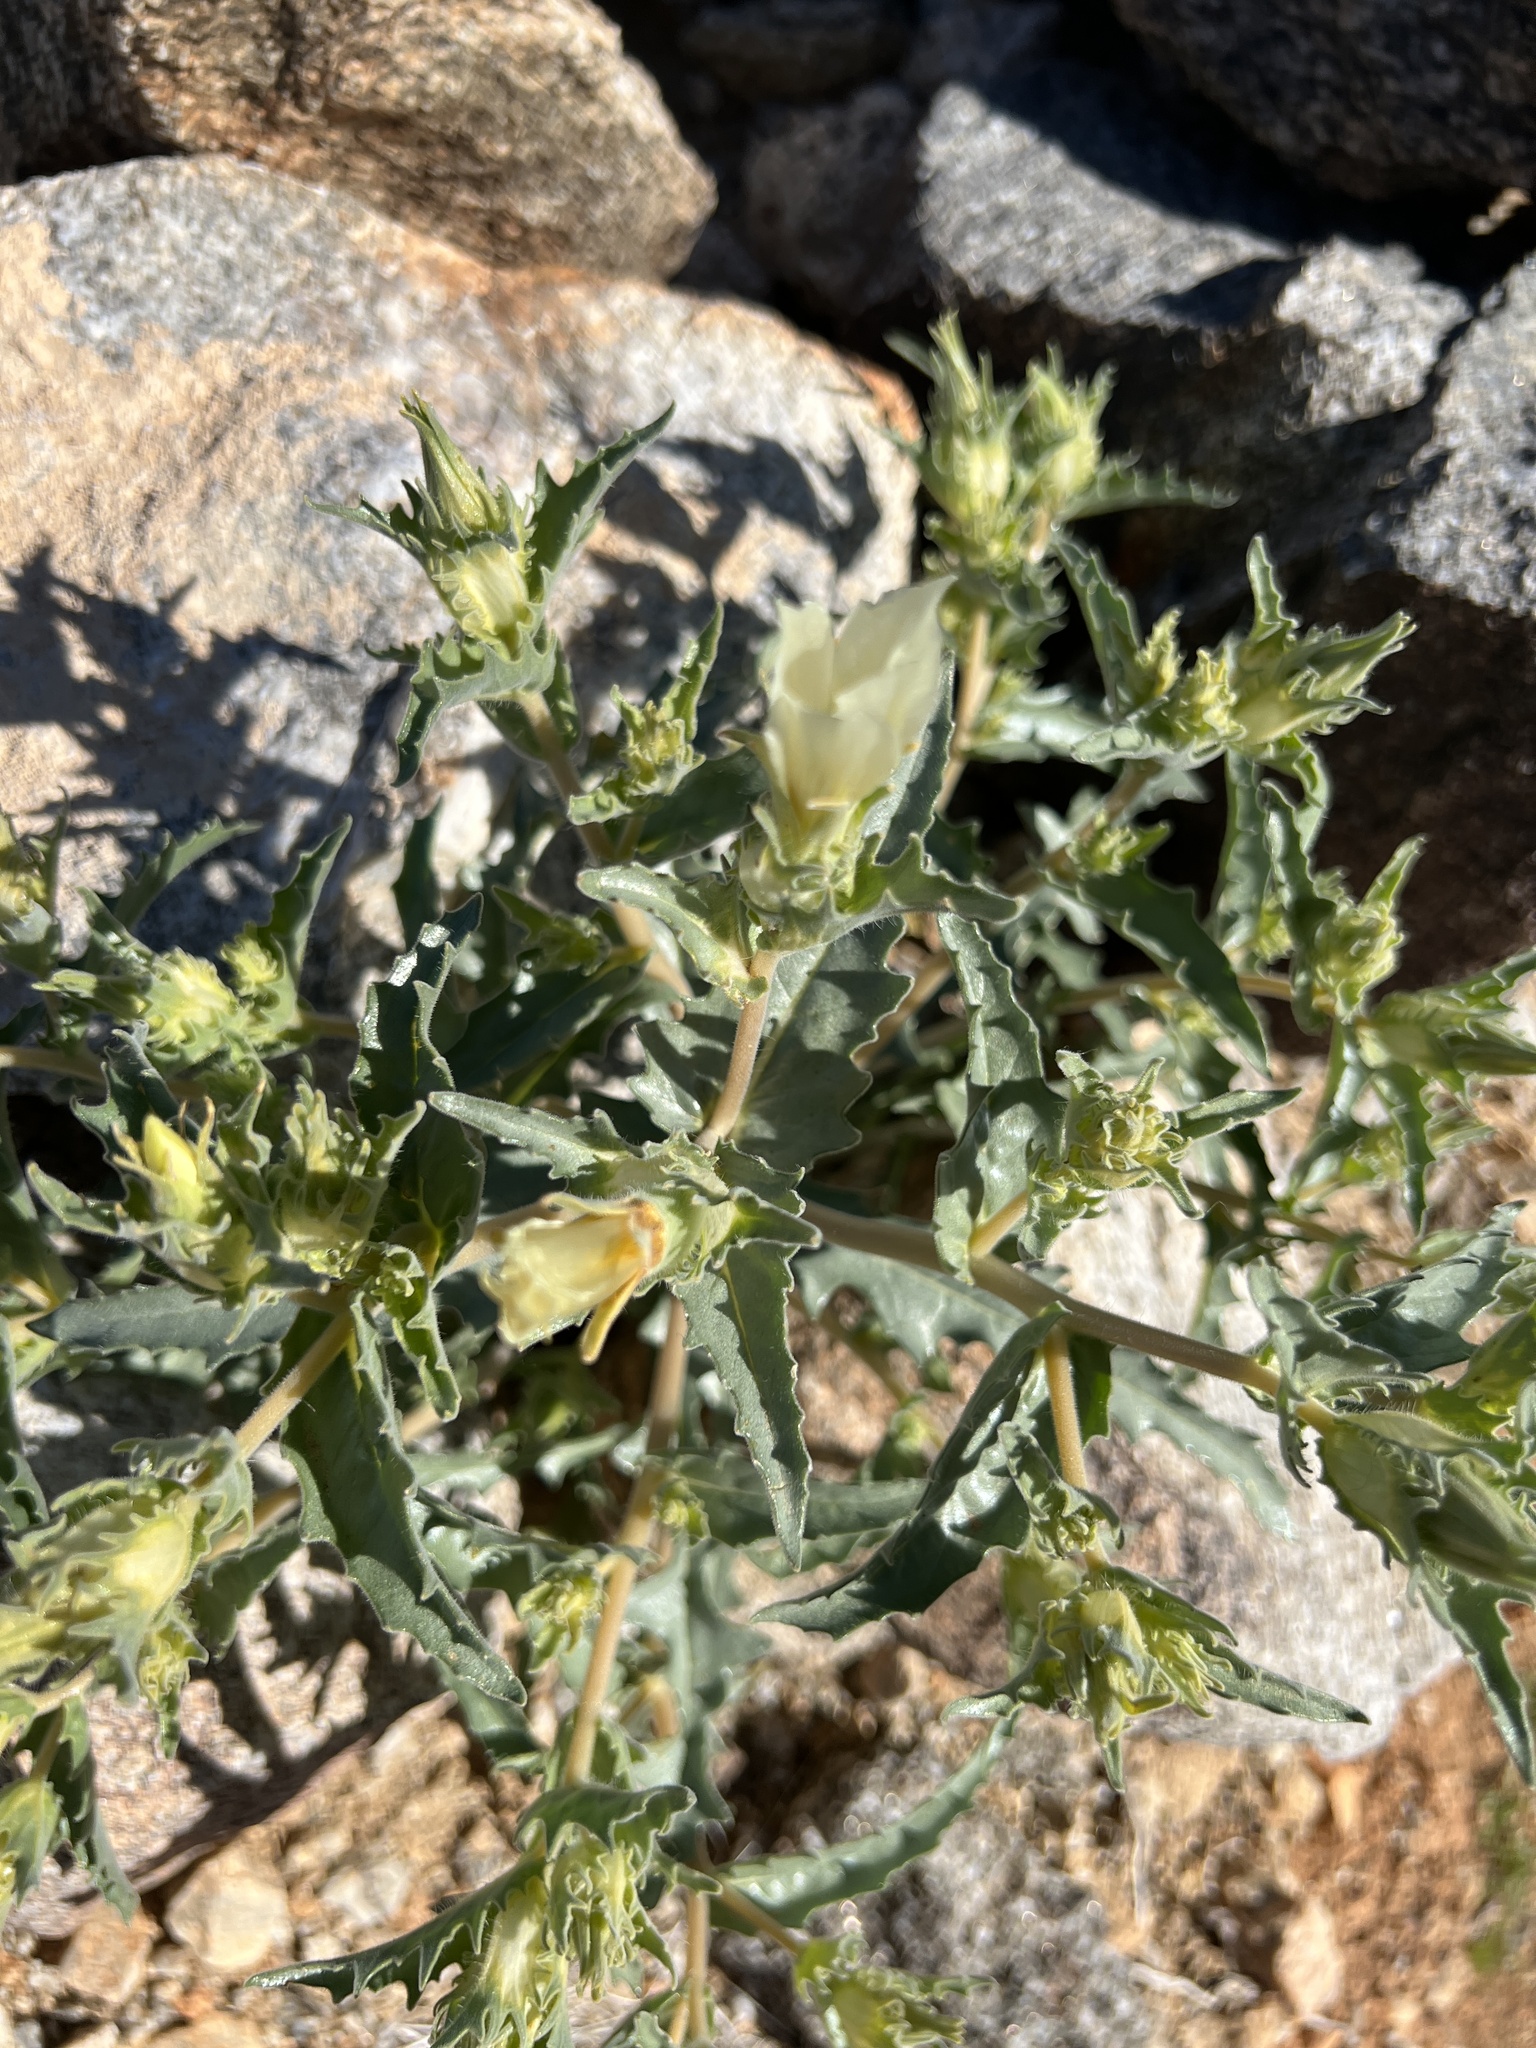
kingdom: Plantae
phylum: Tracheophyta
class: Magnoliopsida
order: Cornales
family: Loasaceae
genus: Mentzelia
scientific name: Mentzelia involucrata
